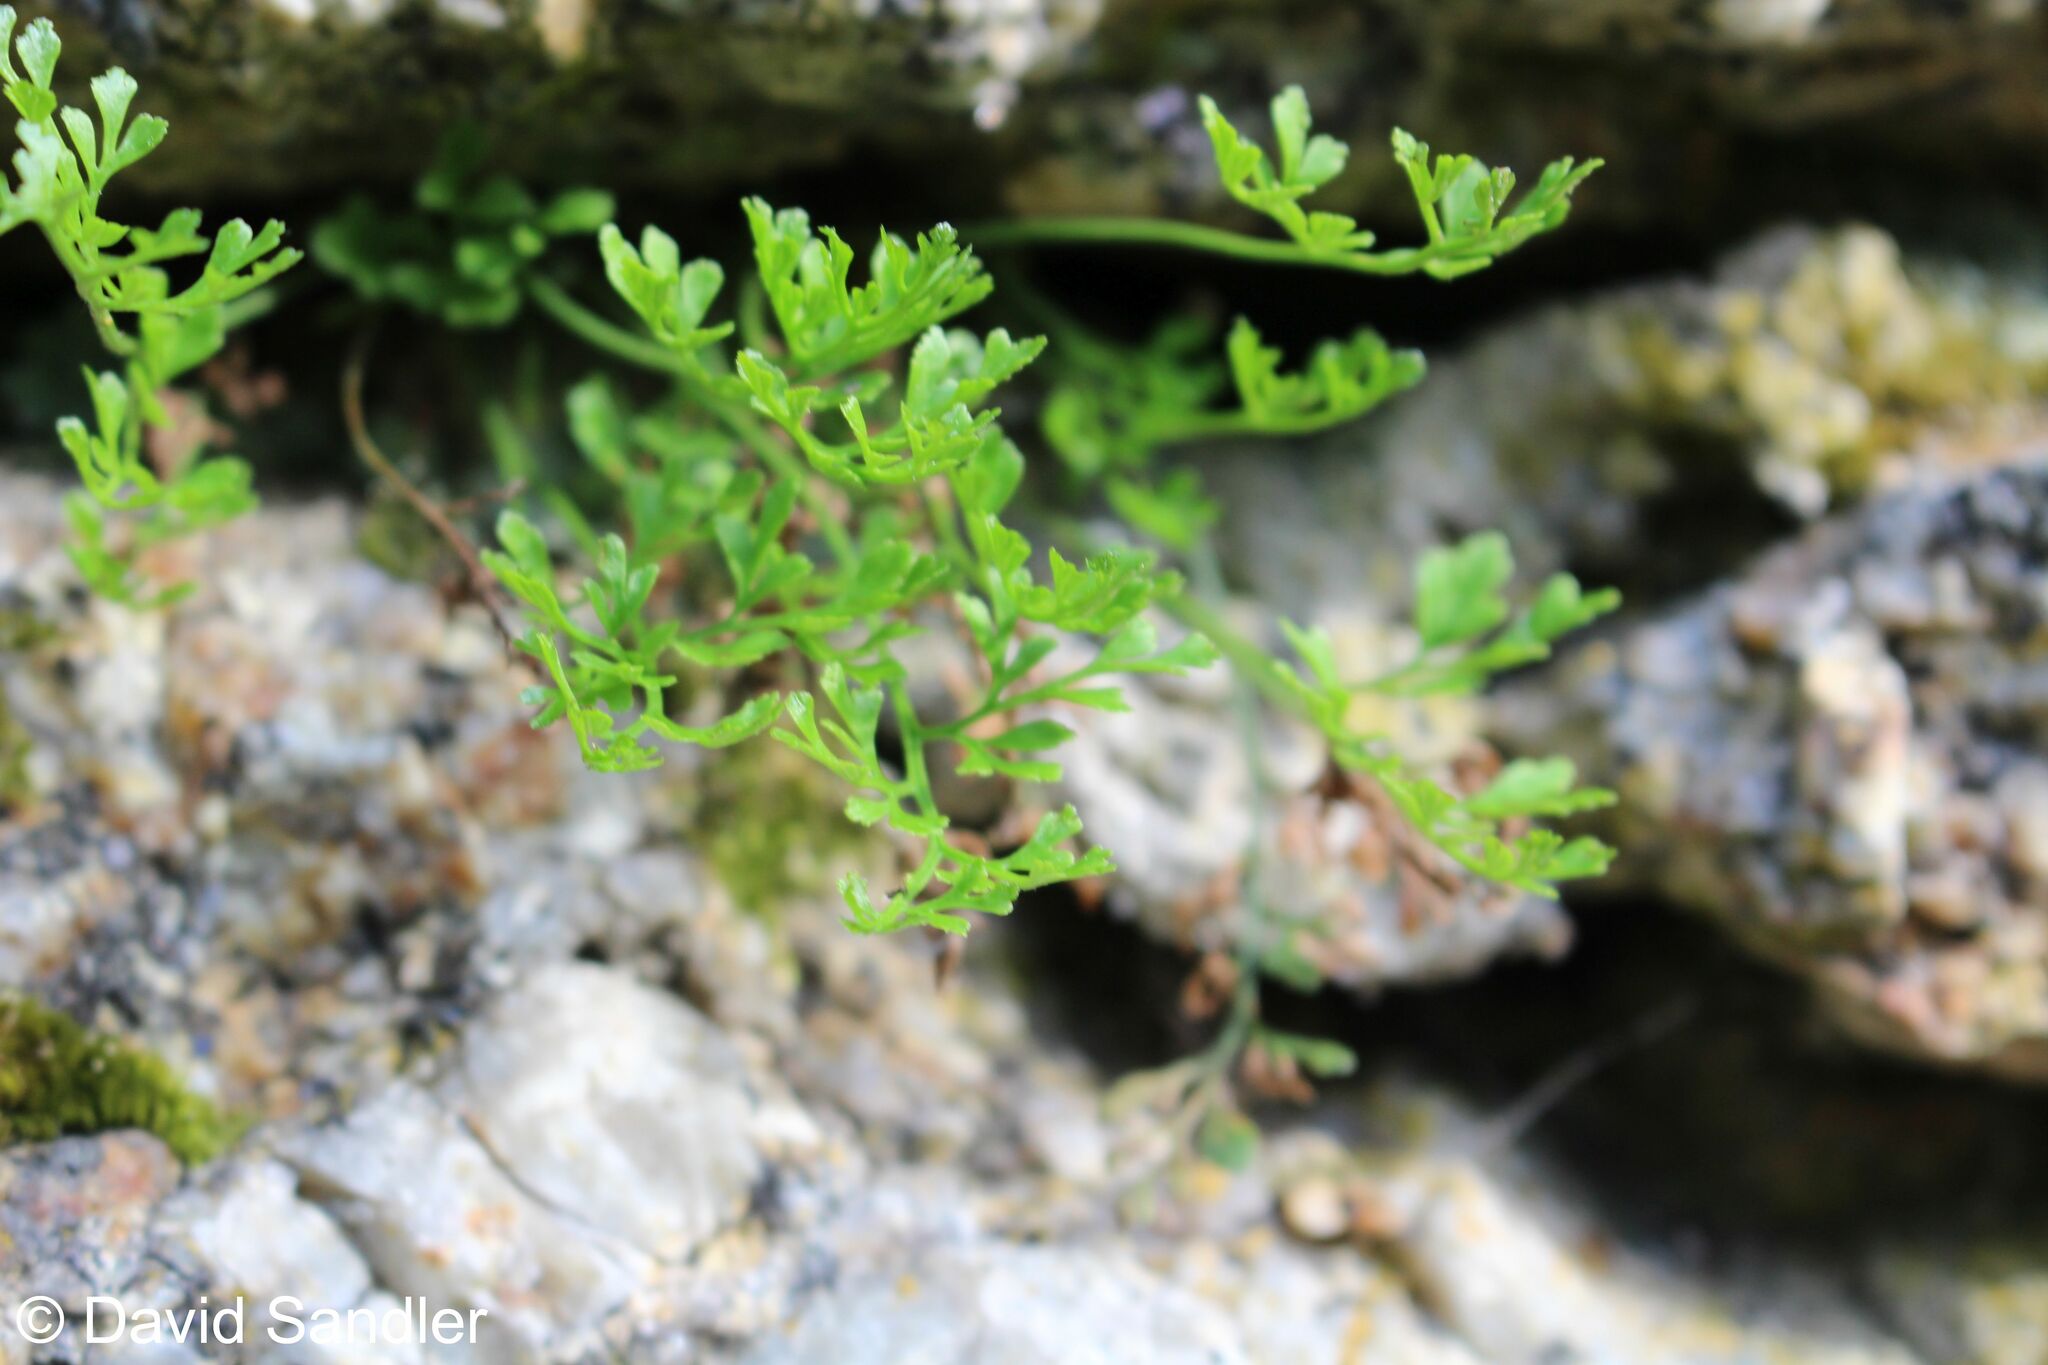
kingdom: Plantae
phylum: Tracheophyta
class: Polypodiopsida
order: Polypodiales
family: Aspleniaceae
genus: Asplenium
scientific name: Asplenium ruta-muraria
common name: Wall-rue
